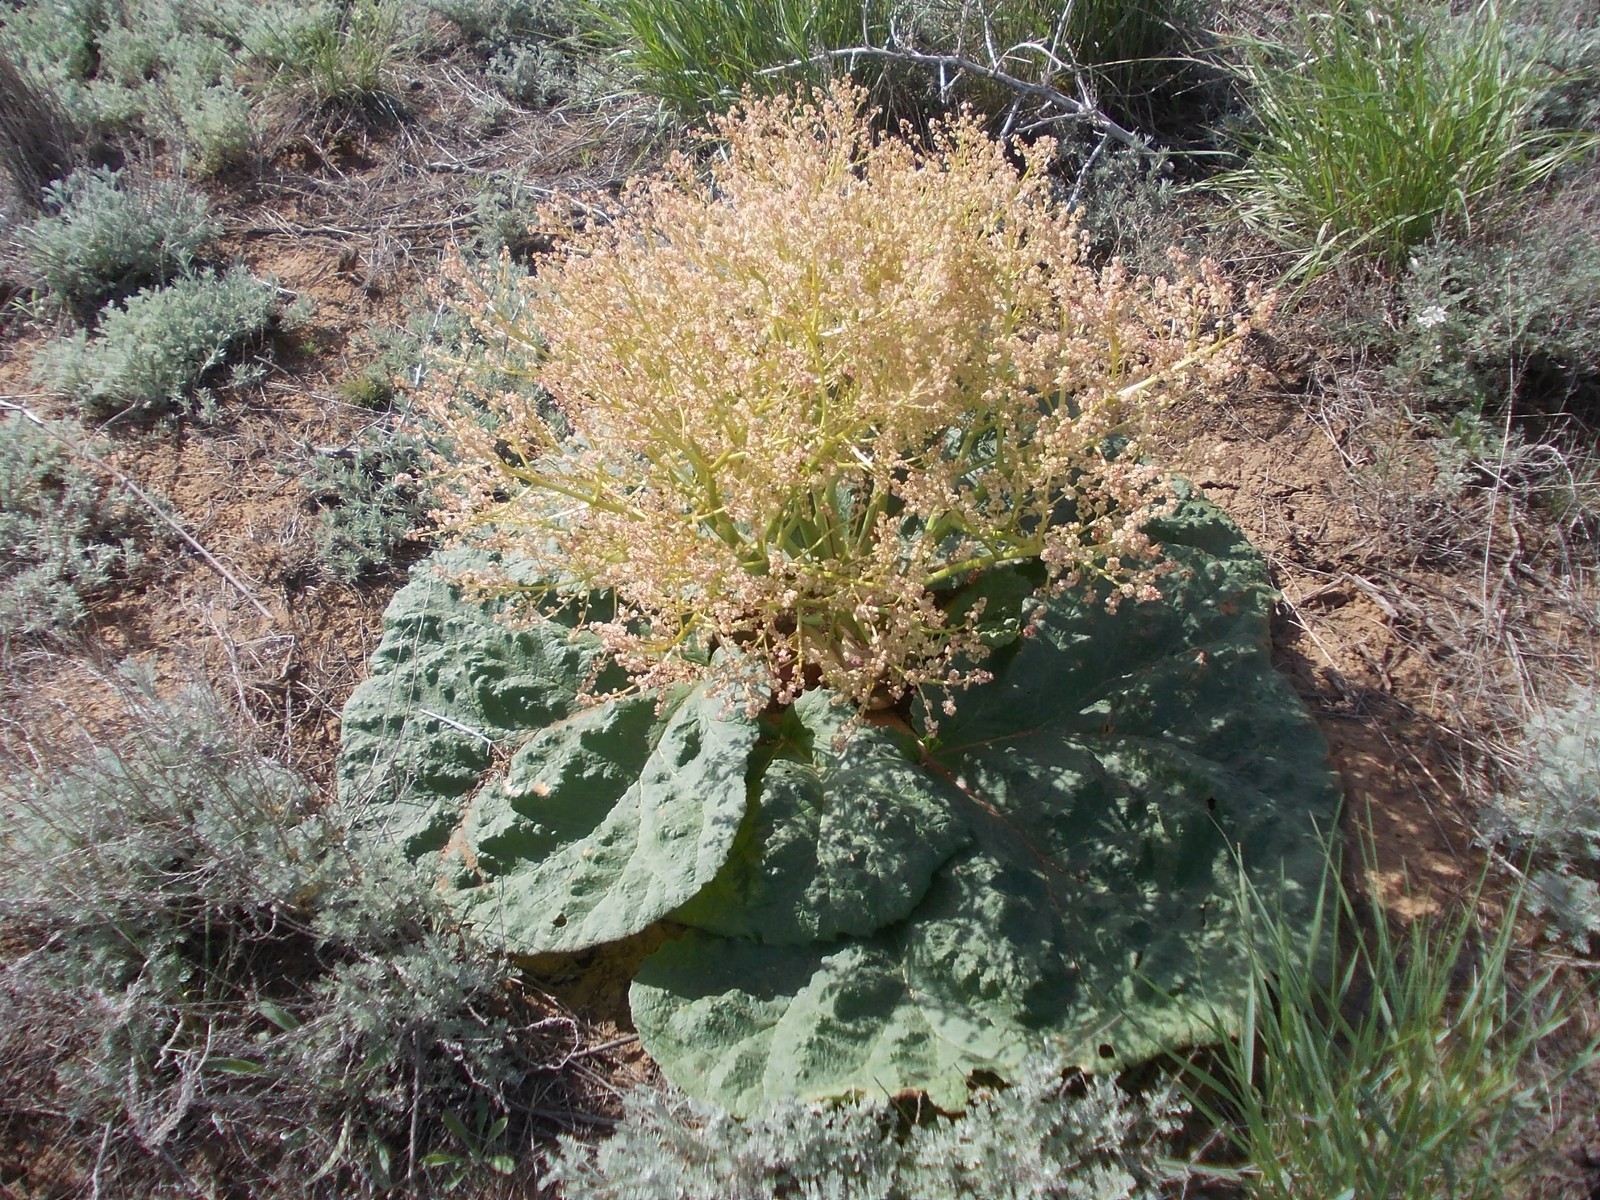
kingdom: Plantae
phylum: Tracheophyta
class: Magnoliopsida
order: Caryophyllales
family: Polygonaceae
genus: Rheum
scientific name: Rheum tataricum
